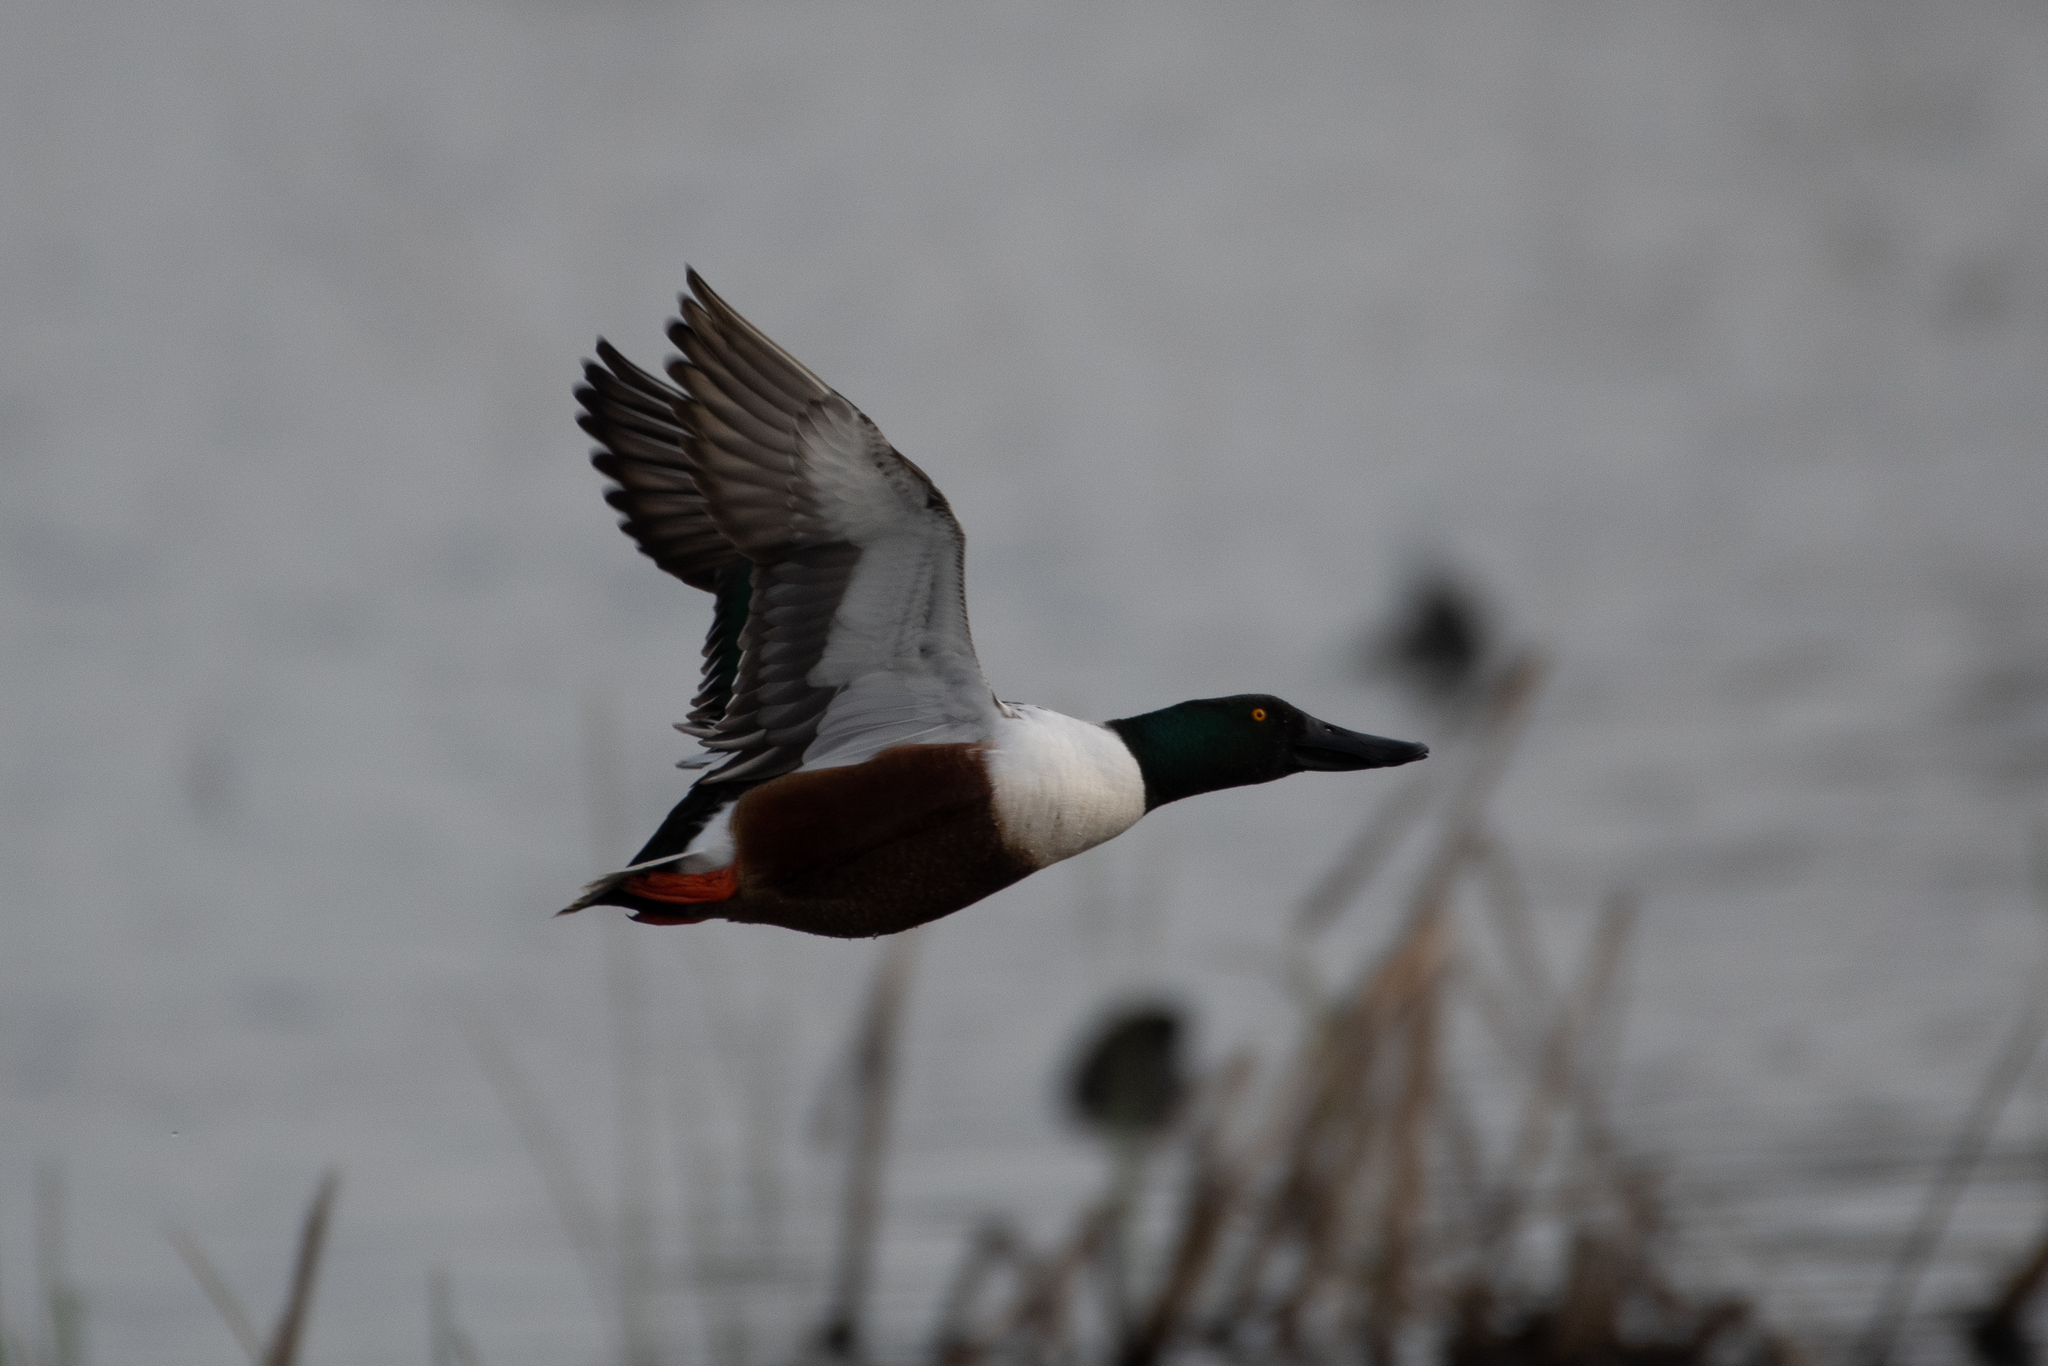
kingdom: Animalia
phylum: Chordata
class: Aves
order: Anseriformes
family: Anatidae
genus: Spatula
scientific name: Spatula clypeata
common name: Northern shoveler
